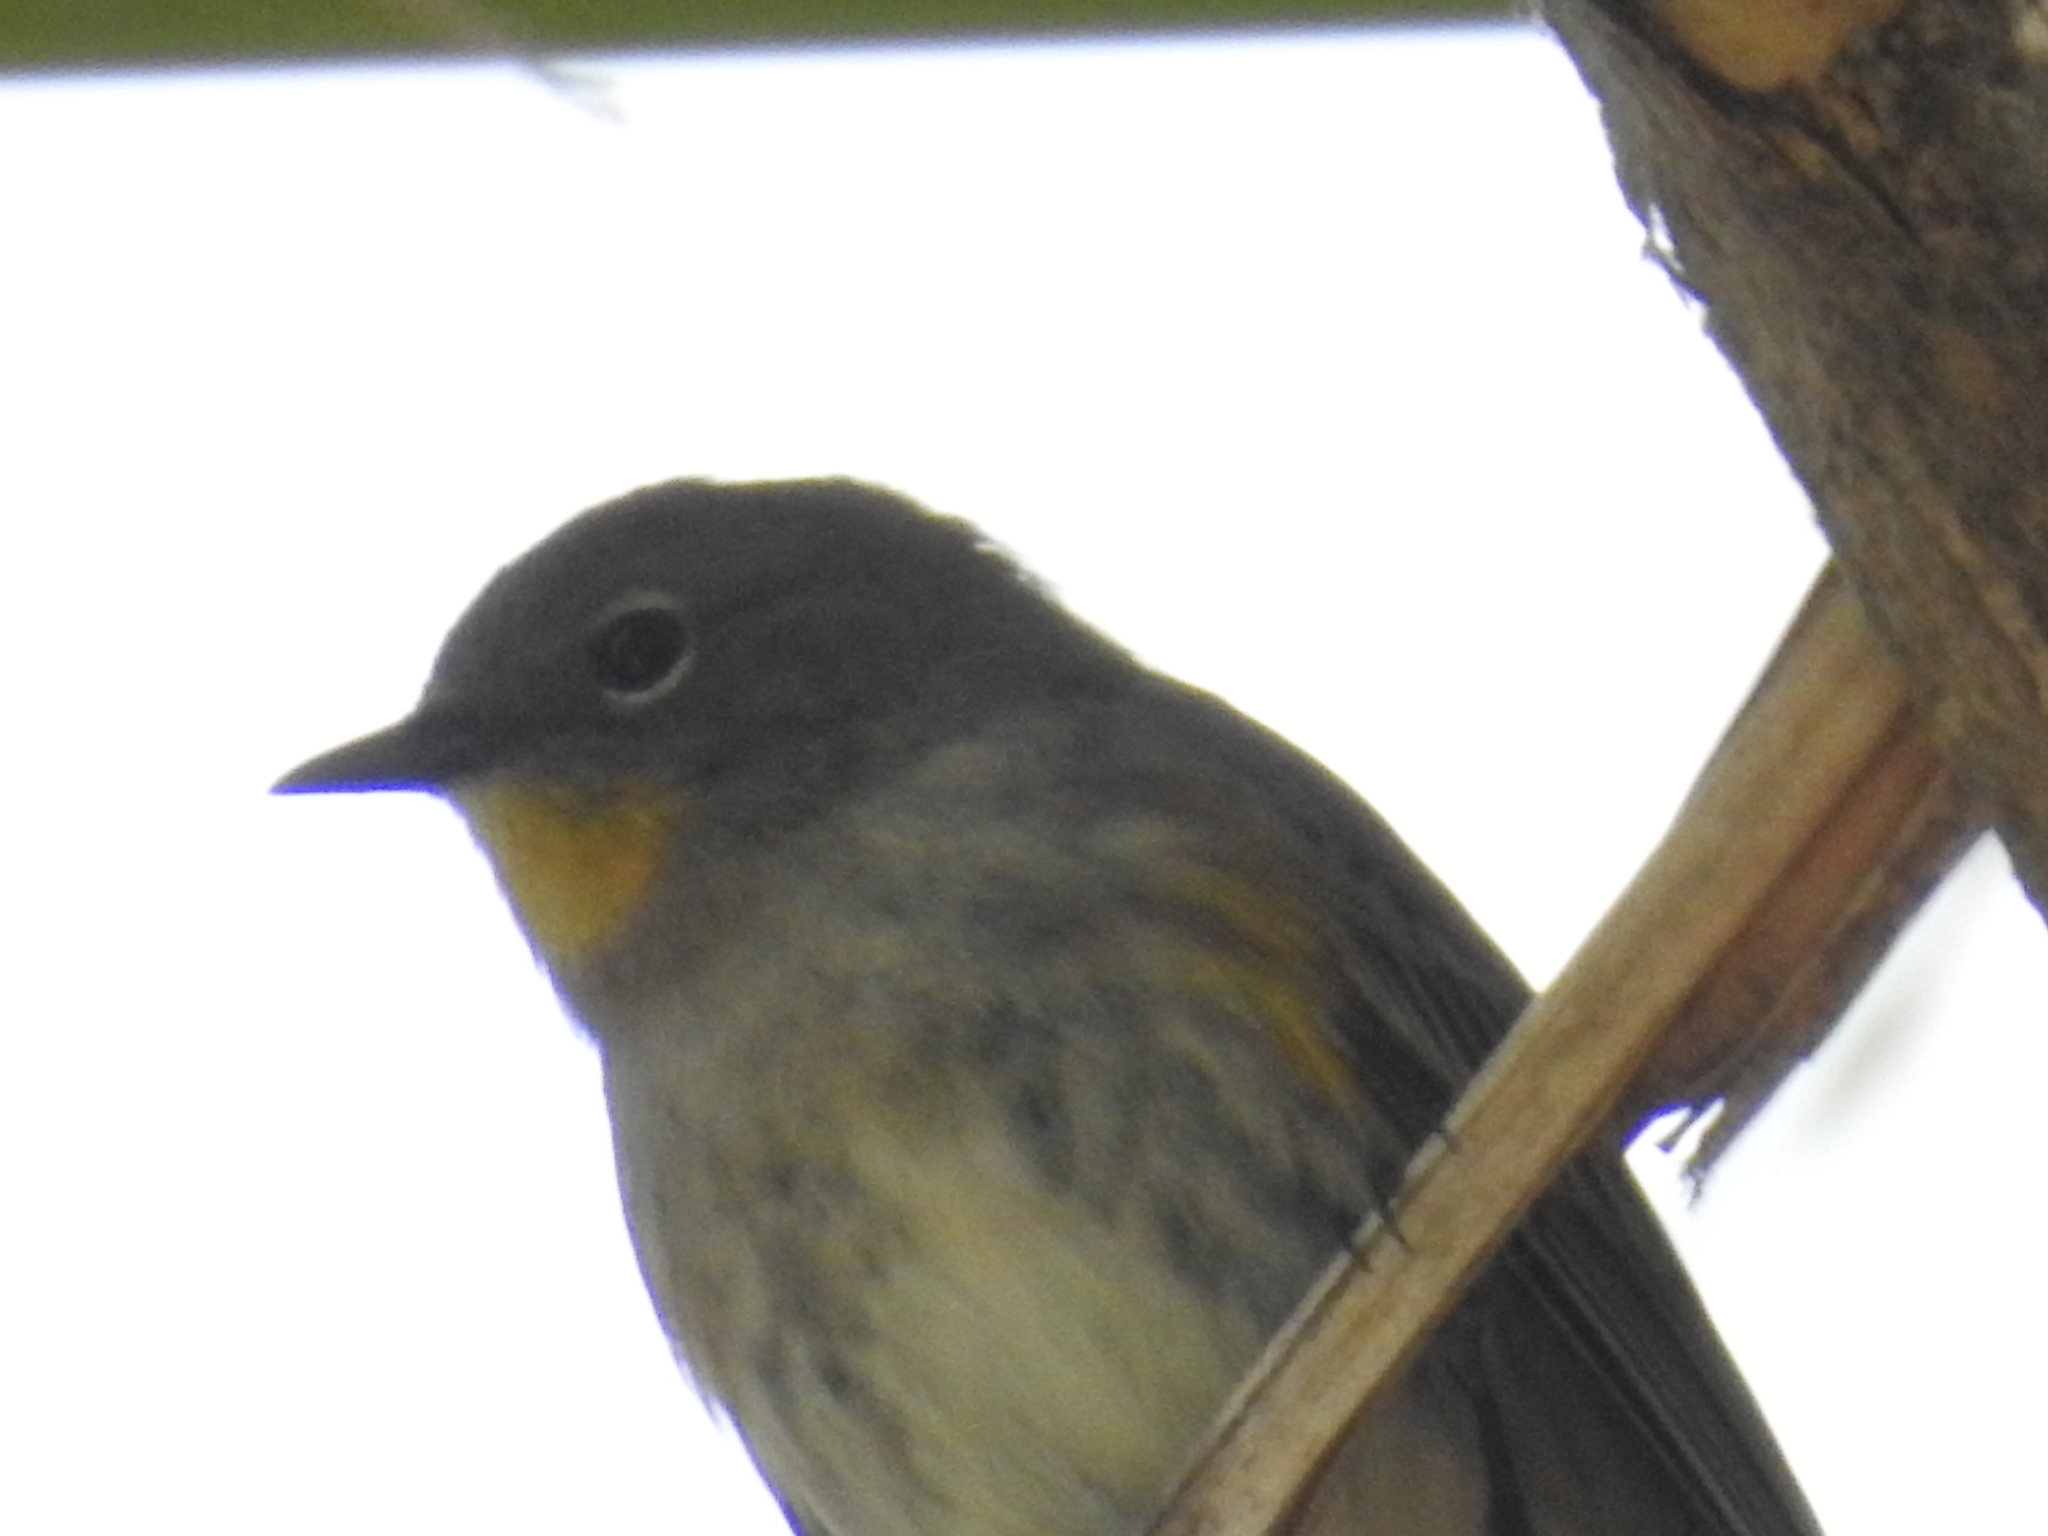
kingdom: Animalia
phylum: Chordata
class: Aves
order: Passeriformes
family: Parulidae
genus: Setophaga
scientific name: Setophaga coronata
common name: Myrtle warbler
